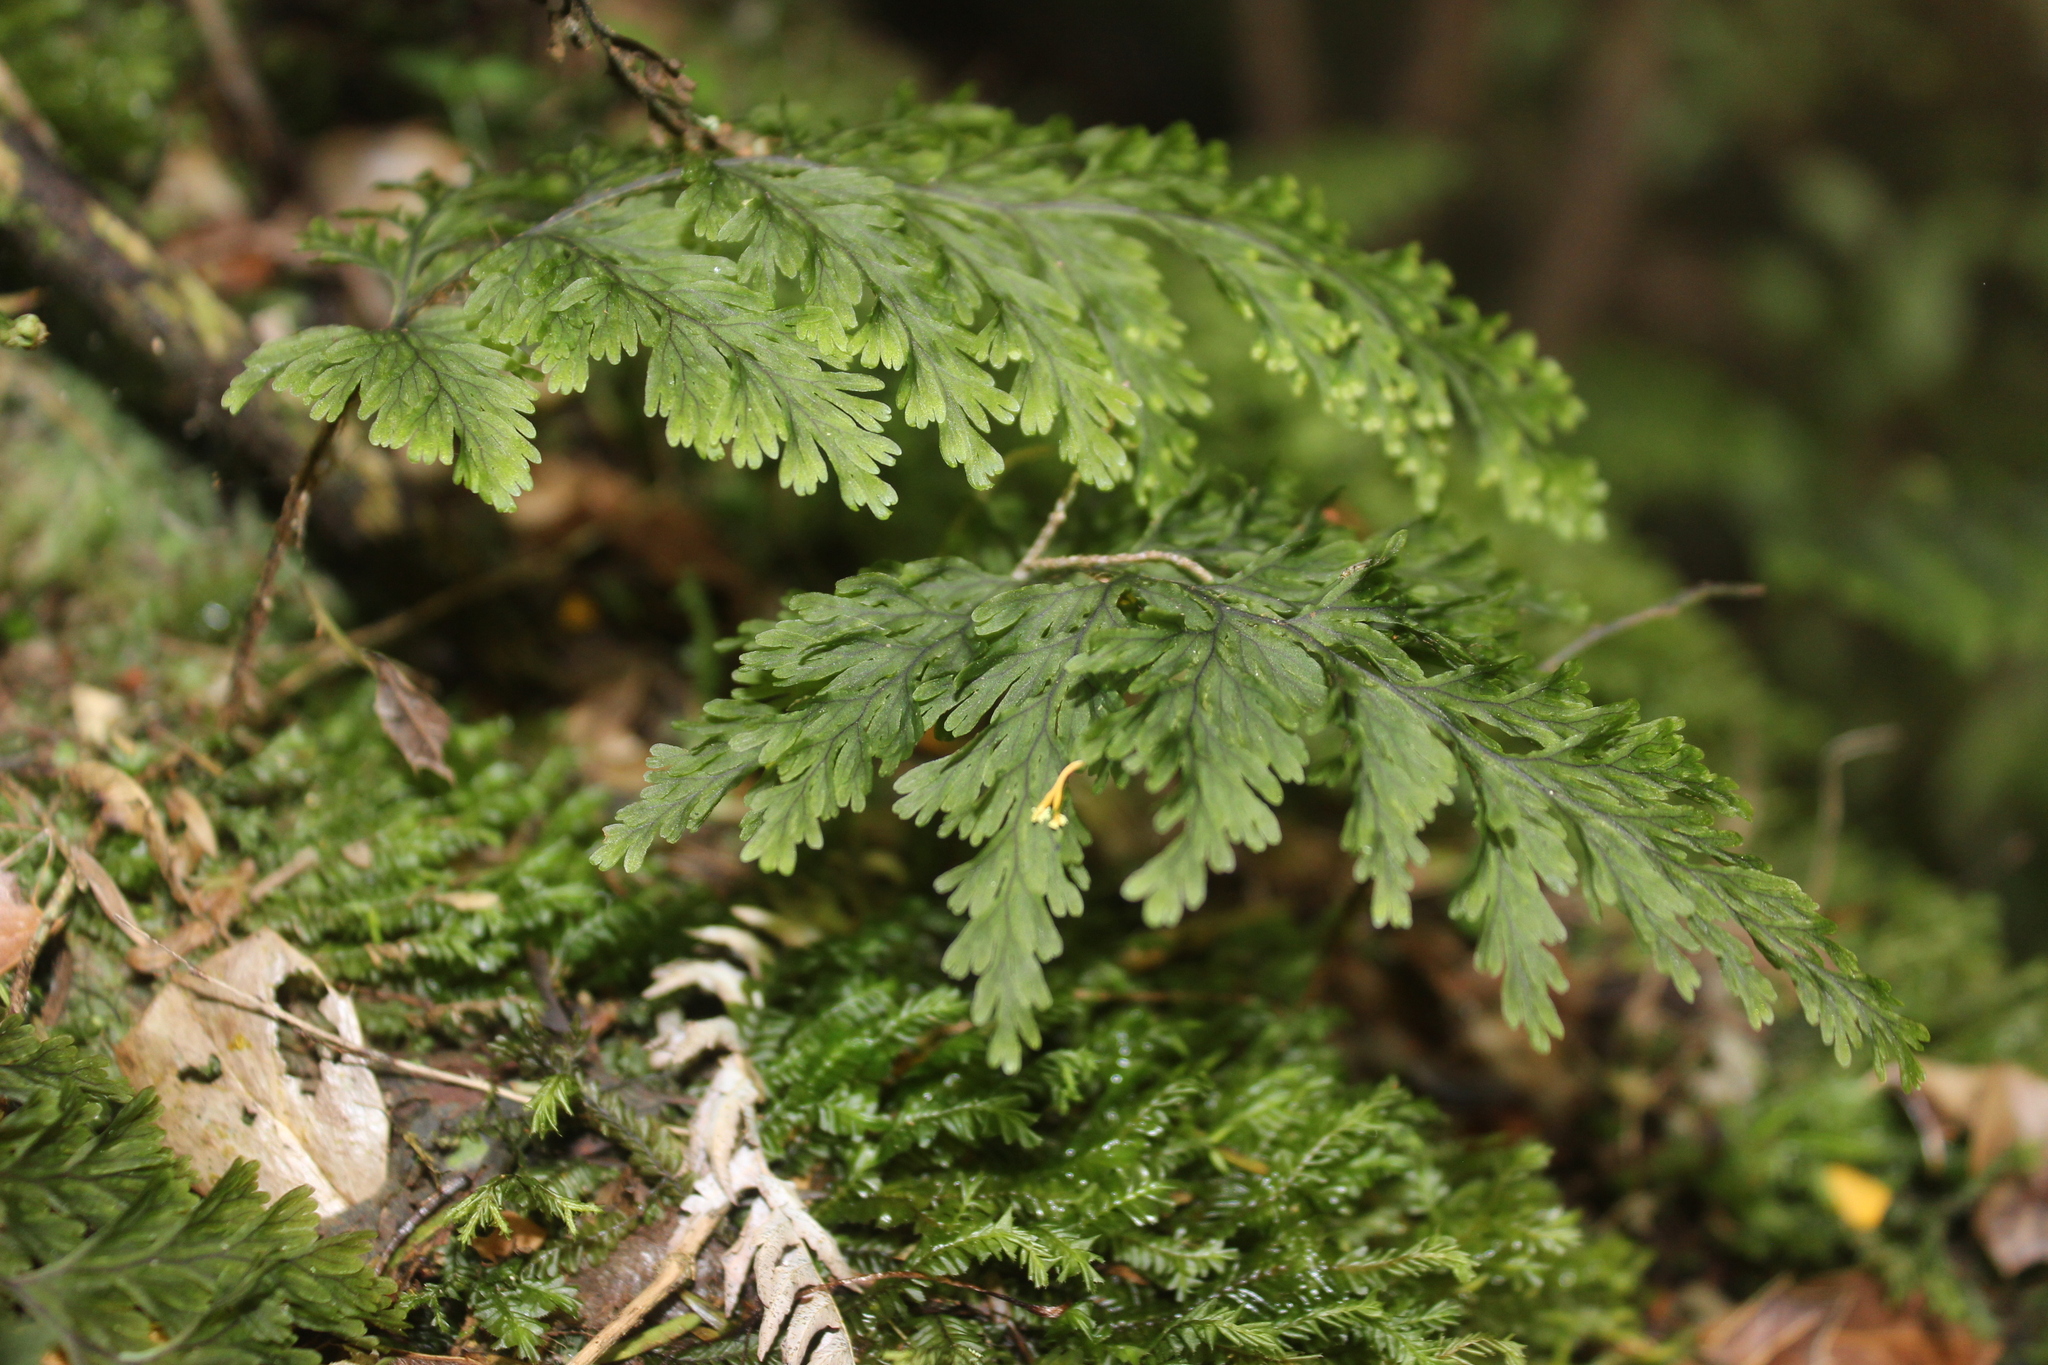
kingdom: Plantae
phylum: Tracheophyta
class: Polypodiopsida
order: Hymenophyllales
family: Hymenophyllaceae
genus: Hymenophyllum
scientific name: Hymenophyllum scabrum
